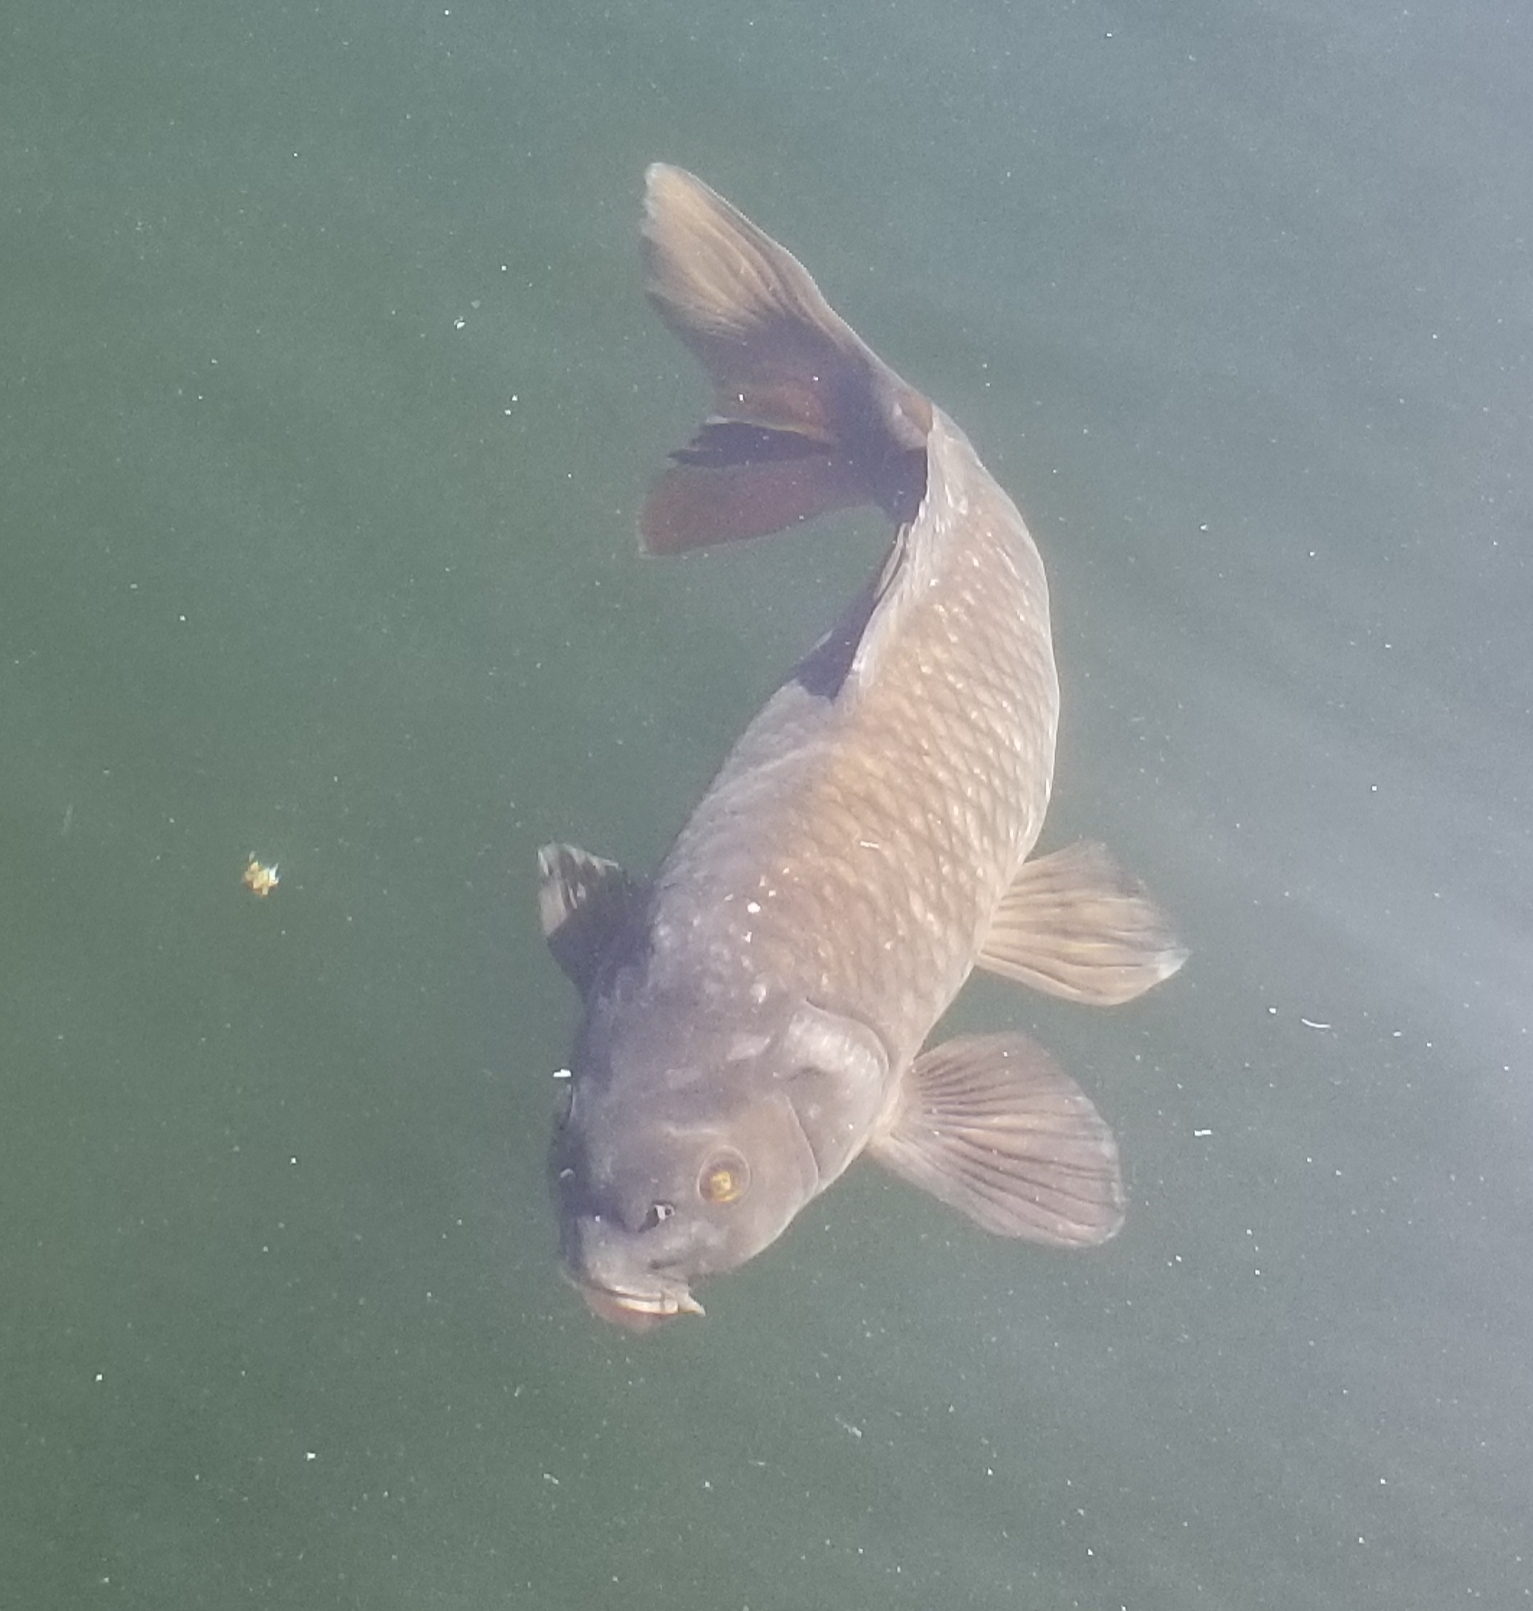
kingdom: Animalia
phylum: Chordata
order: Cypriniformes
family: Cyprinidae
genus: Cyprinus
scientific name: Cyprinus carpio
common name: Common carp
